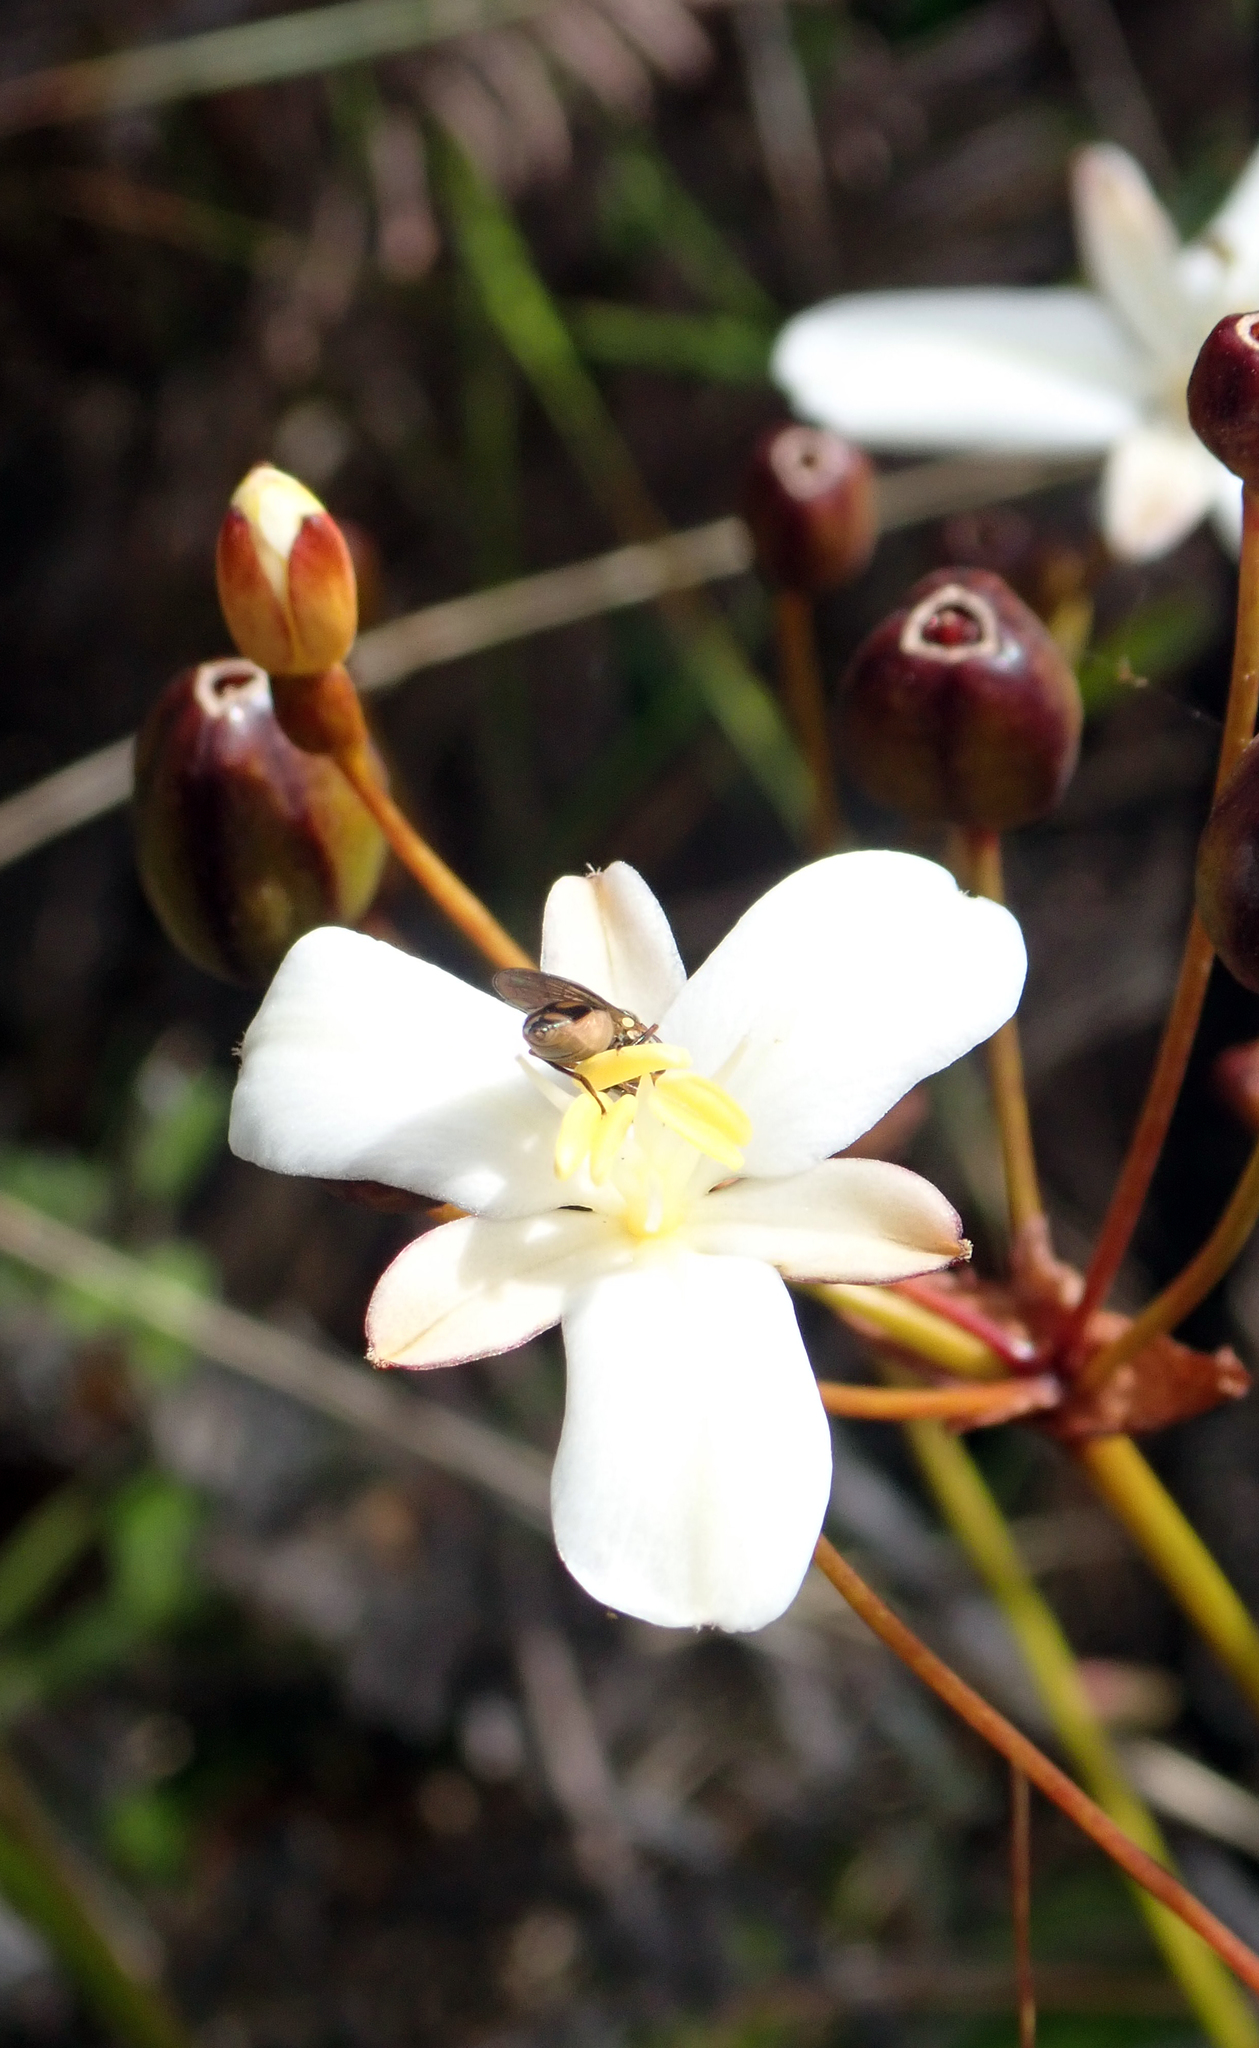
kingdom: Plantae
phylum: Tracheophyta
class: Liliopsida
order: Asparagales
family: Iridaceae
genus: Libertia
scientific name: Libertia peregrinans
